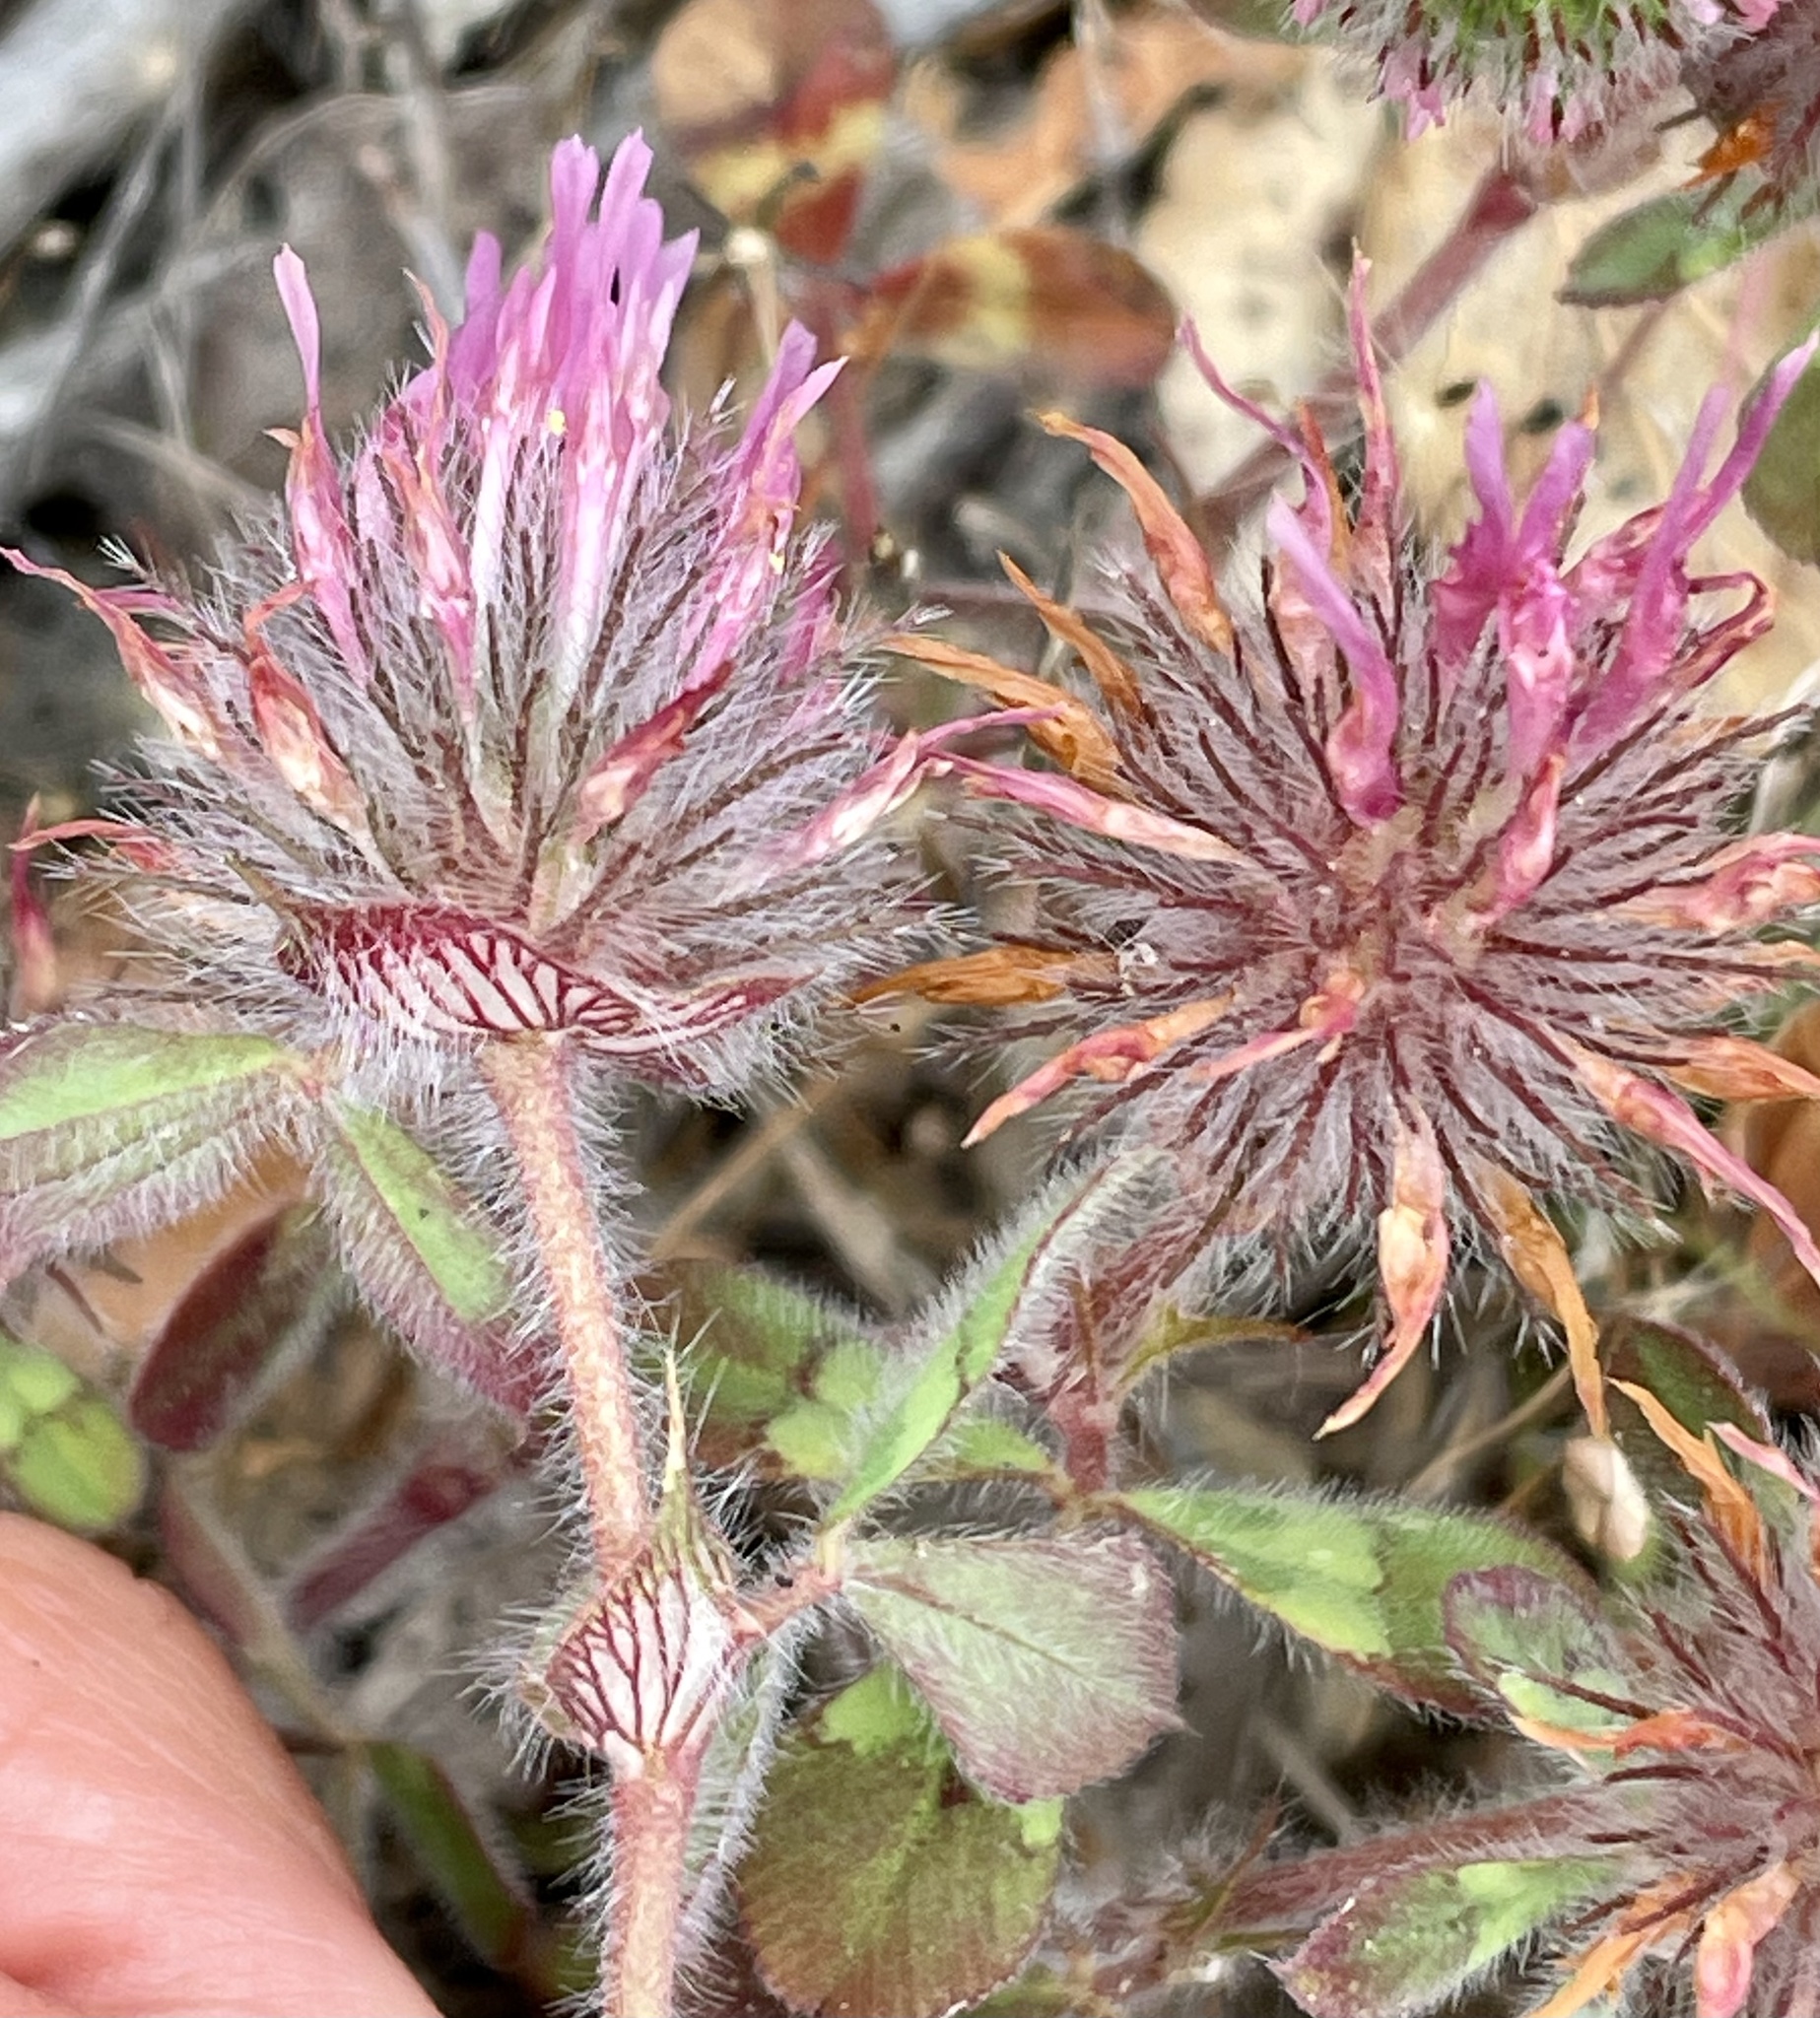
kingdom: Plantae
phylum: Tracheophyta
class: Magnoliopsida
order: Fabales
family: Fabaceae
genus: Trifolium
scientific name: Trifolium hirtum
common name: Rose clover
